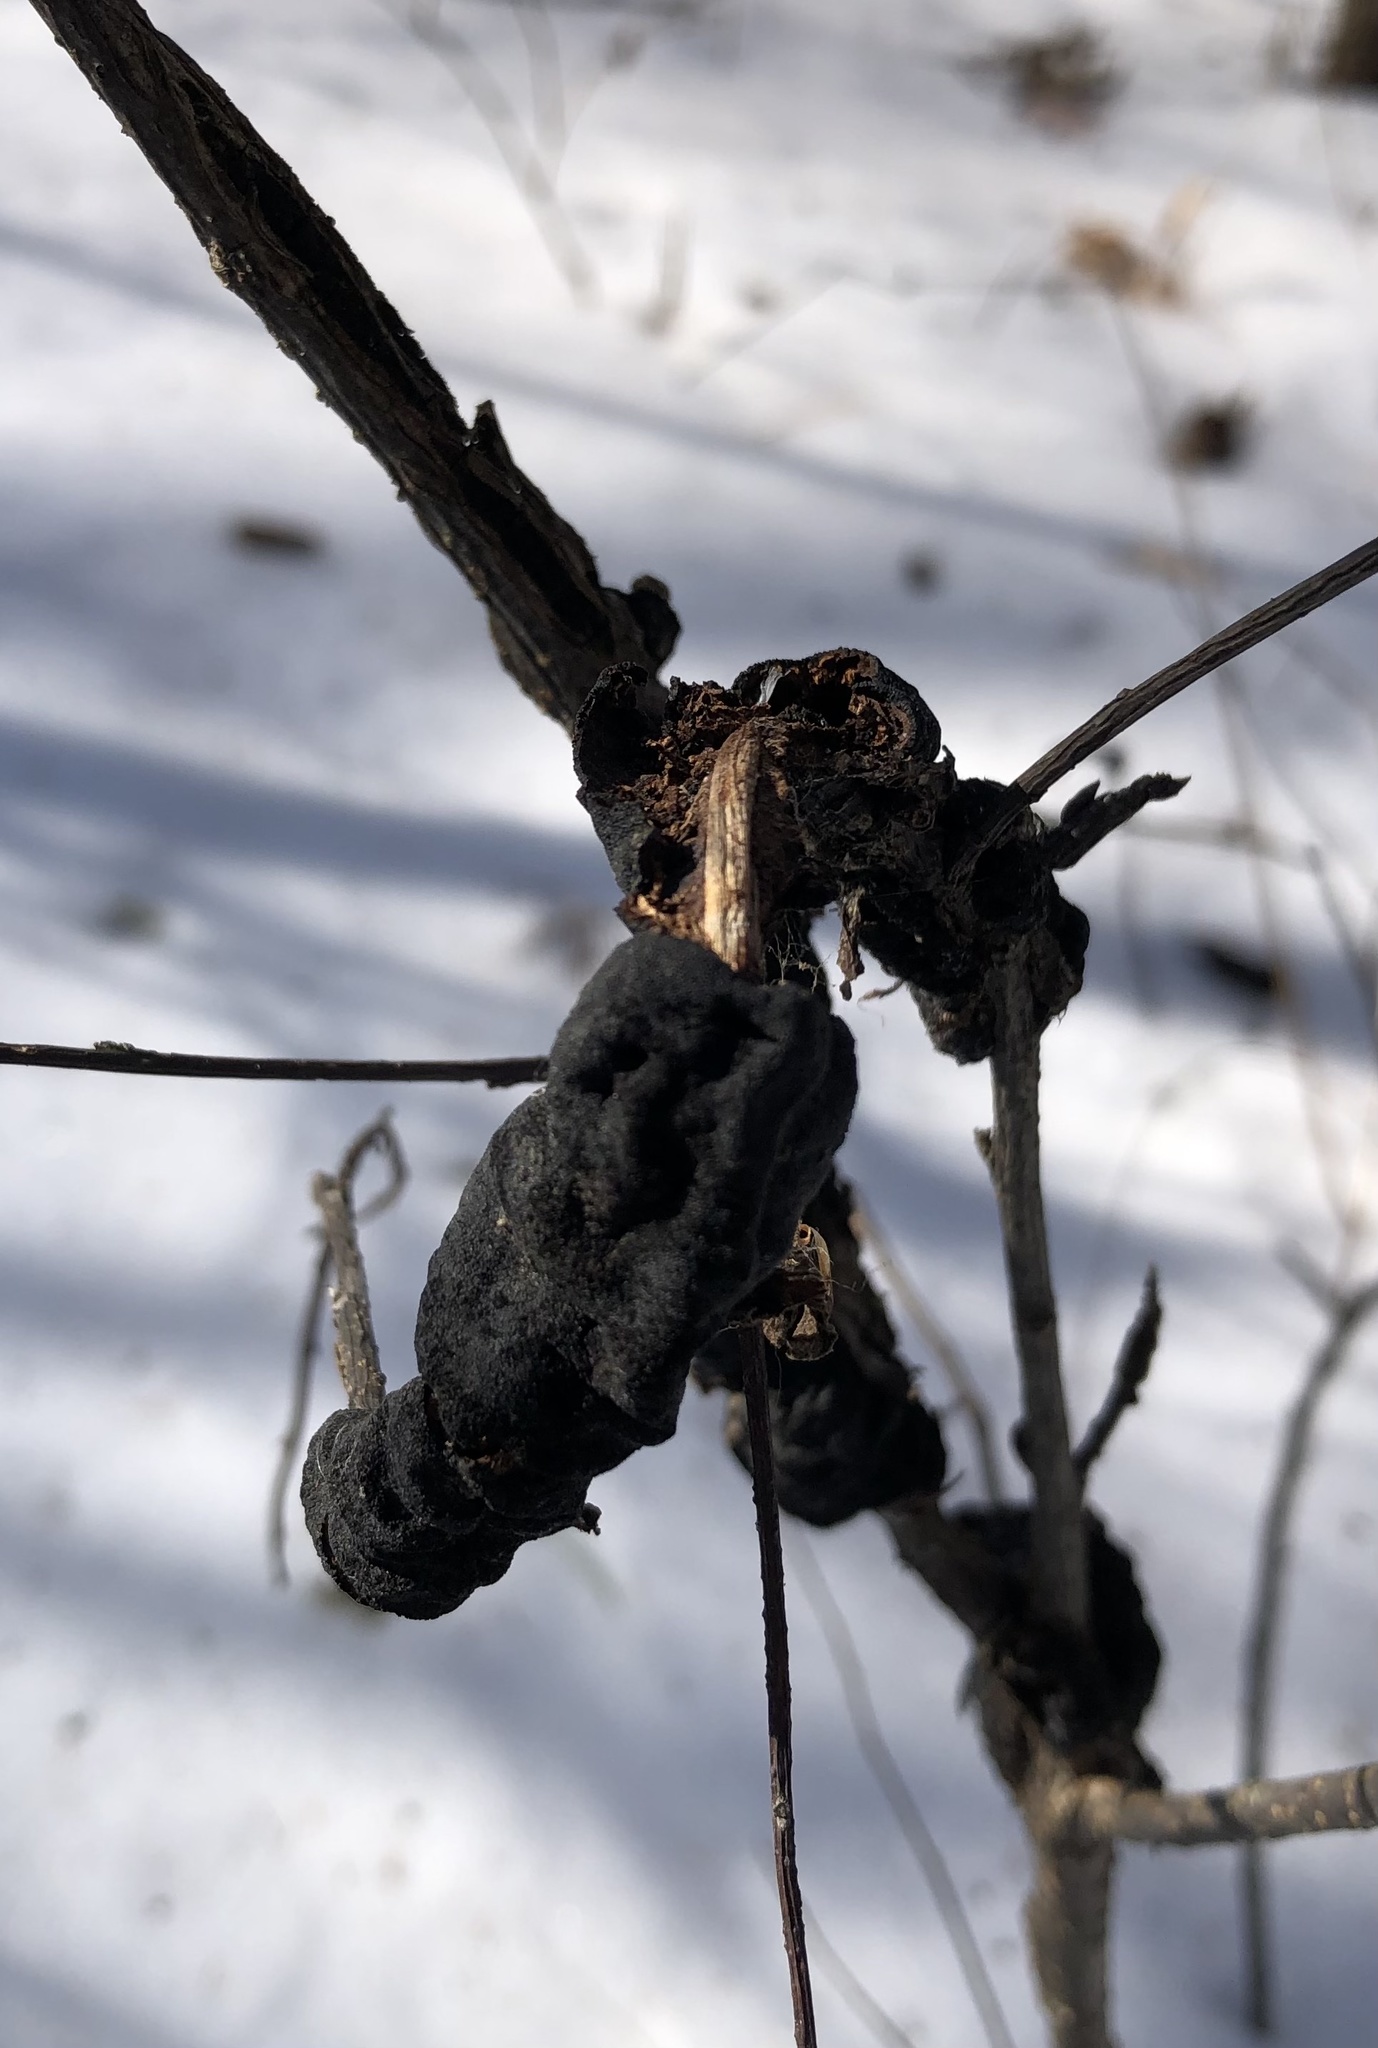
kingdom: Fungi
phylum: Ascomycota
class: Dothideomycetes
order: Venturiales
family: Venturiaceae
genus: Apiosporina
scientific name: Apiosporina morbosa
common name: Black knot
